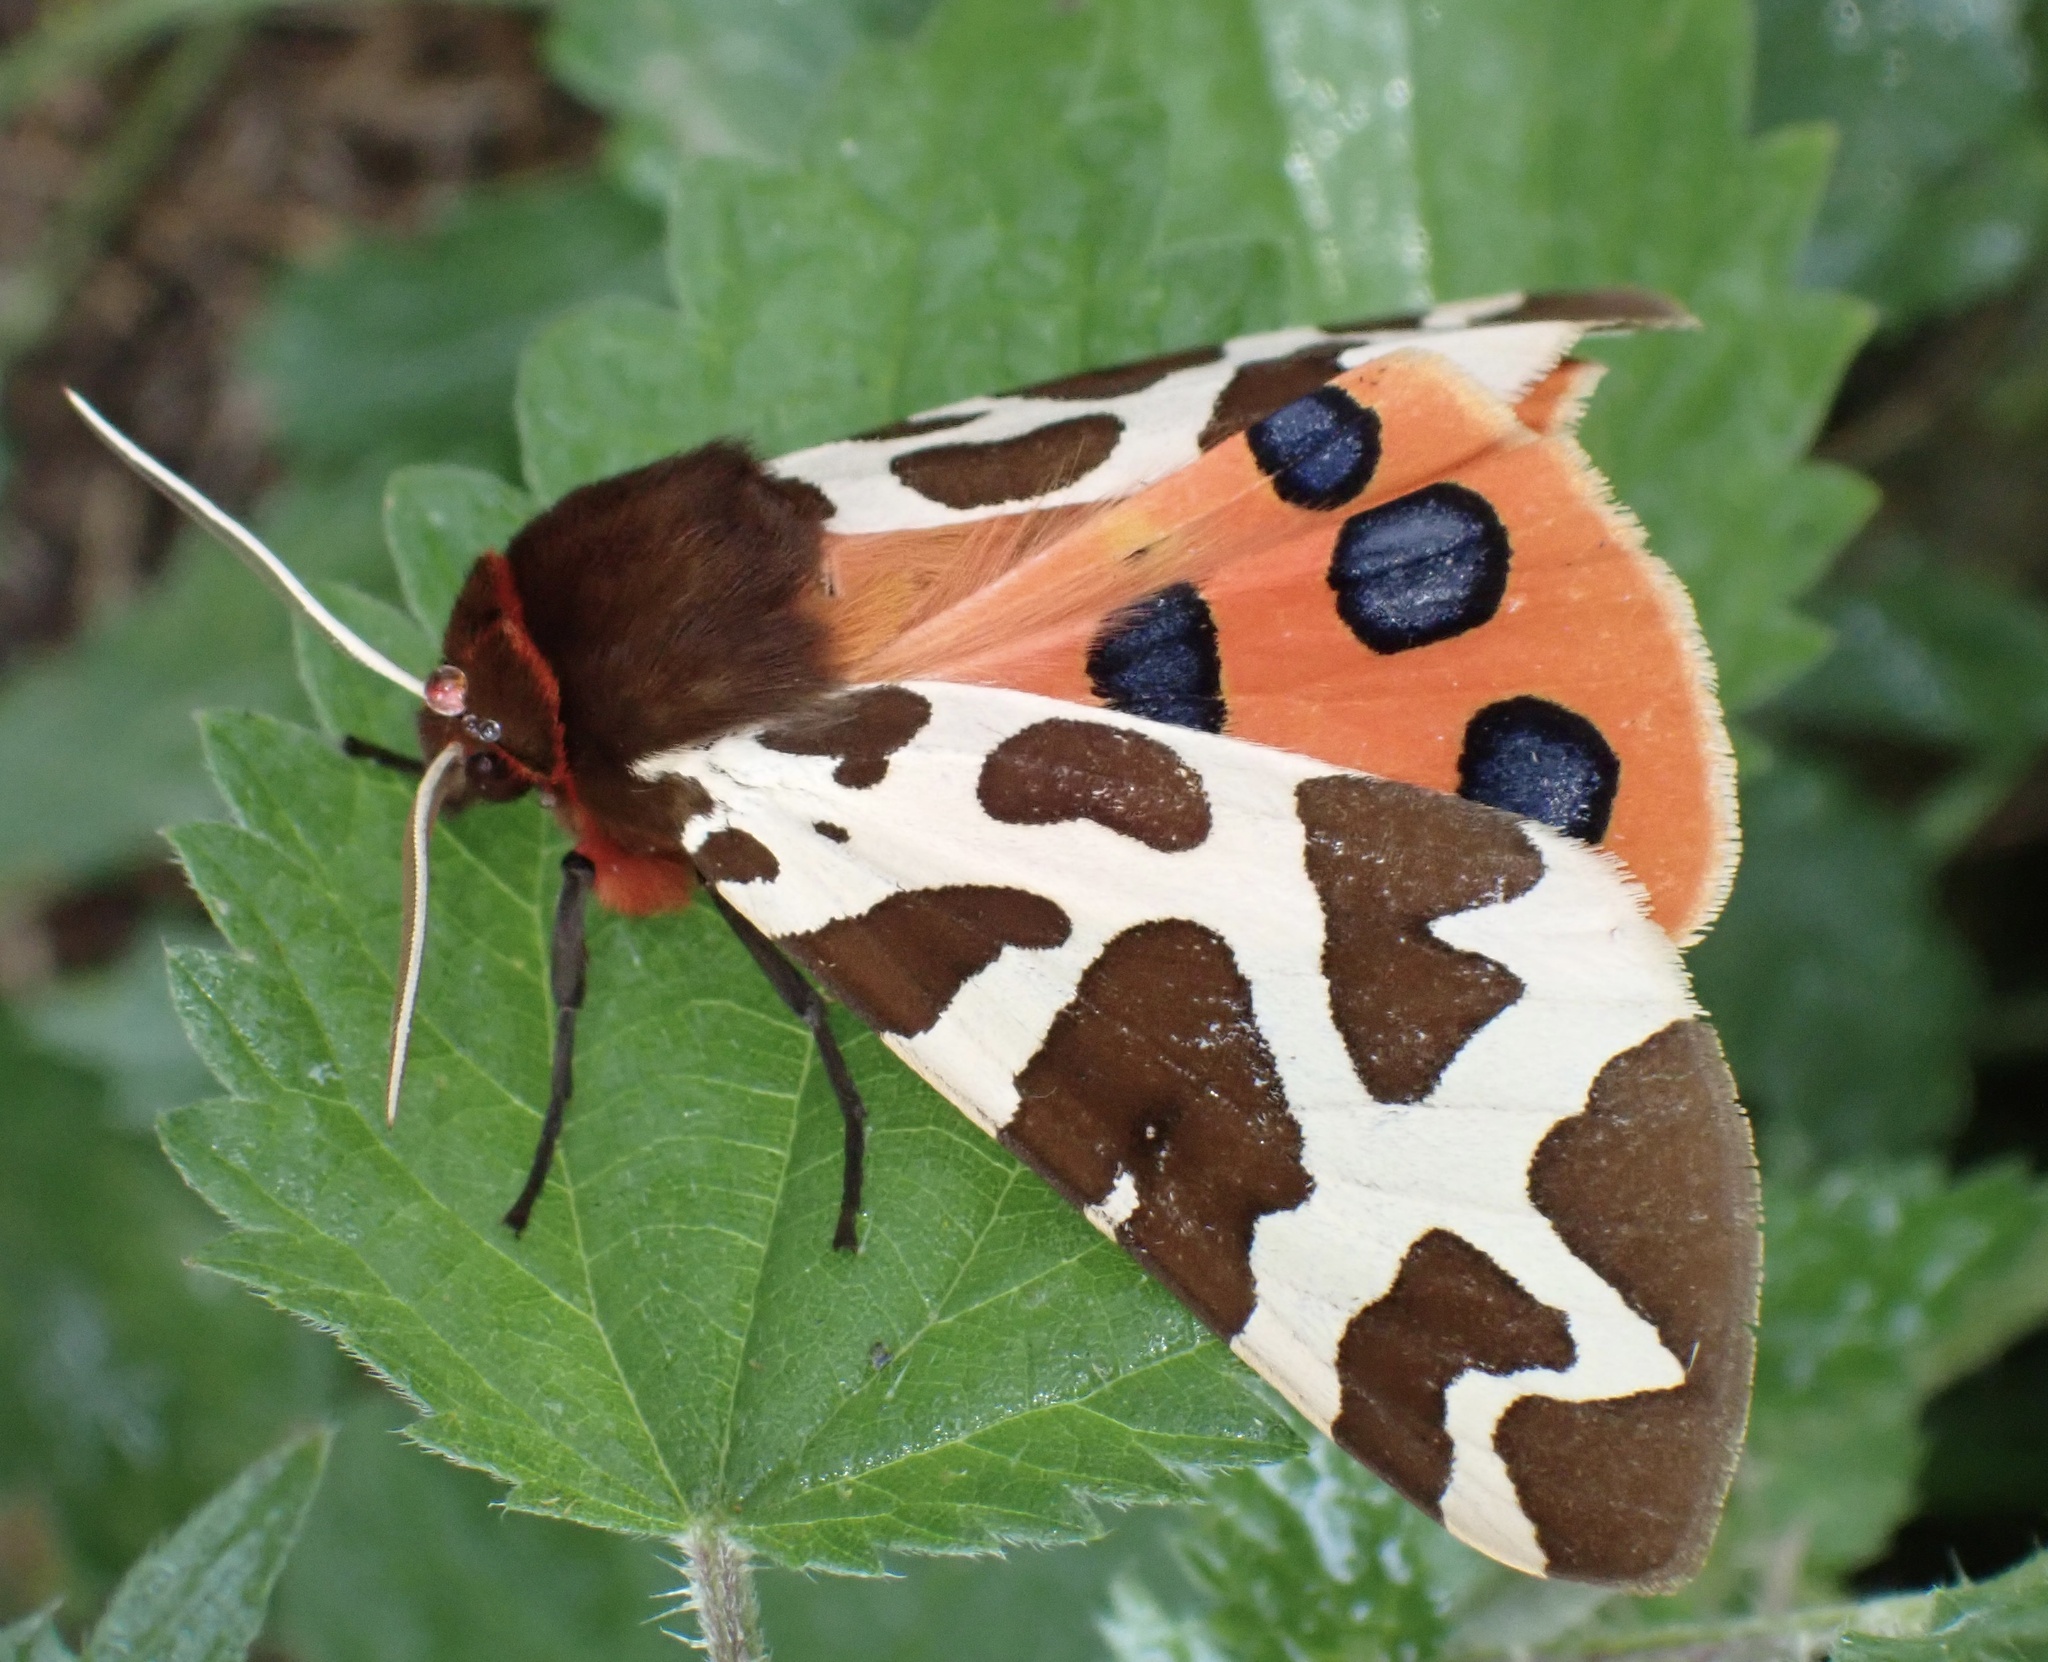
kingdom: Animalia
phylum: Arthropoda
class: Insecta
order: Lepidoptera
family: Erebidae
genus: Arctia
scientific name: Arctia caja
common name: Garden tiger
